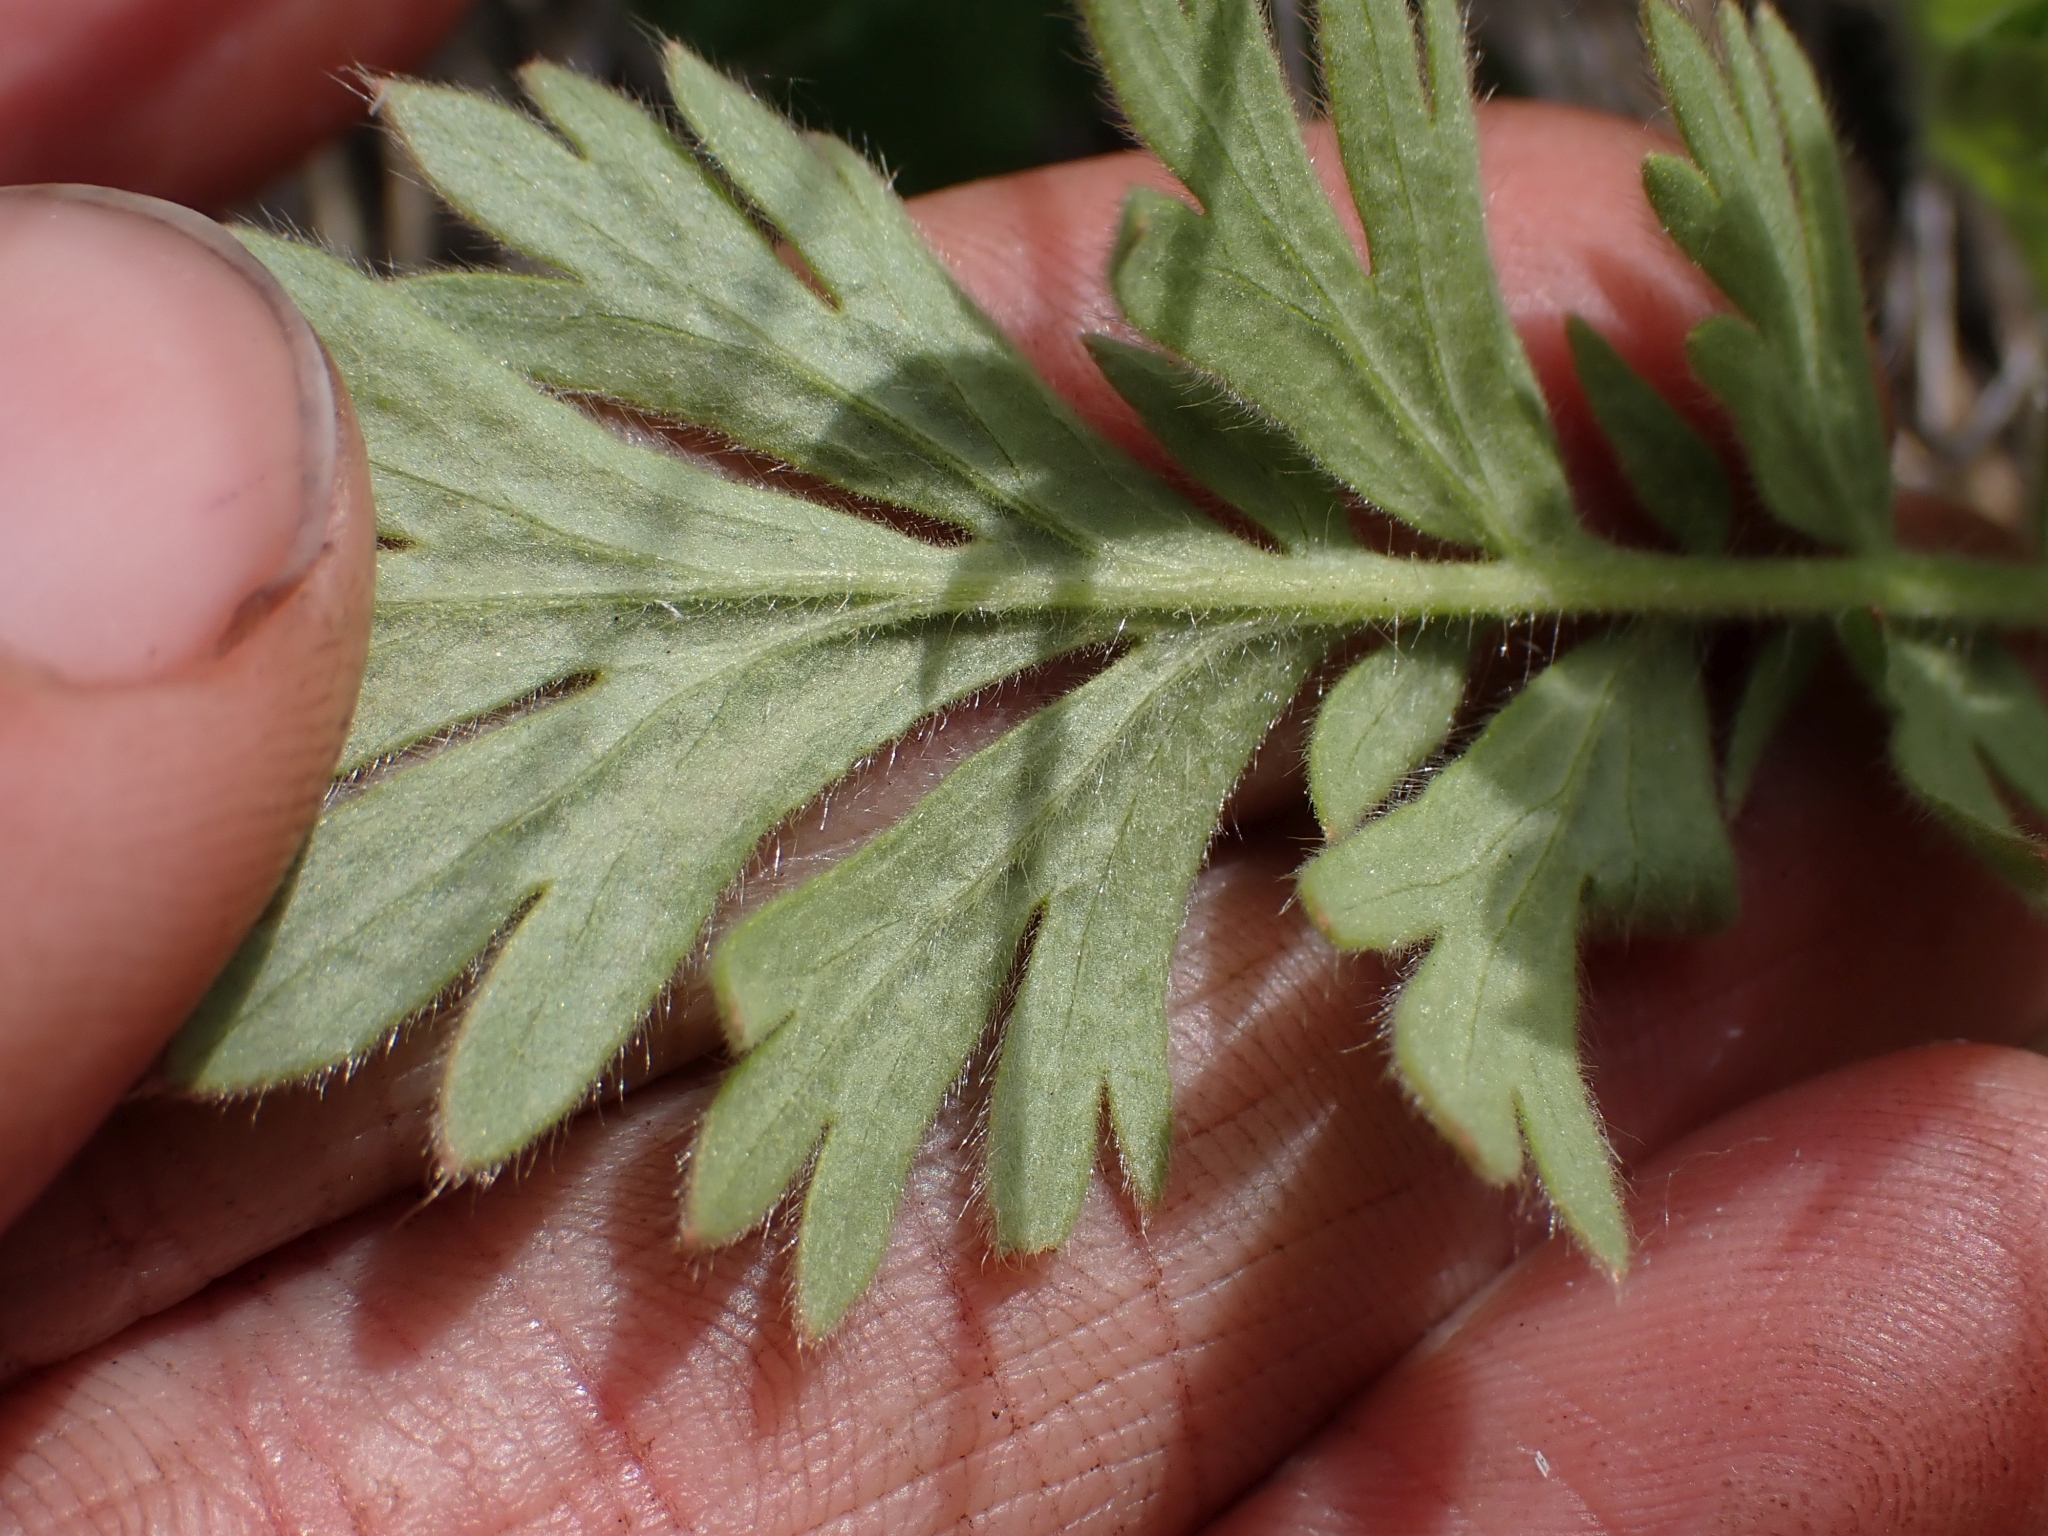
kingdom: Plantae
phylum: Tracheophyta
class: Magnoliopsida
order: Rosales
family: Rosaceae
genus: Geum
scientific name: Geum triflorum
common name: Old man's whiskers
